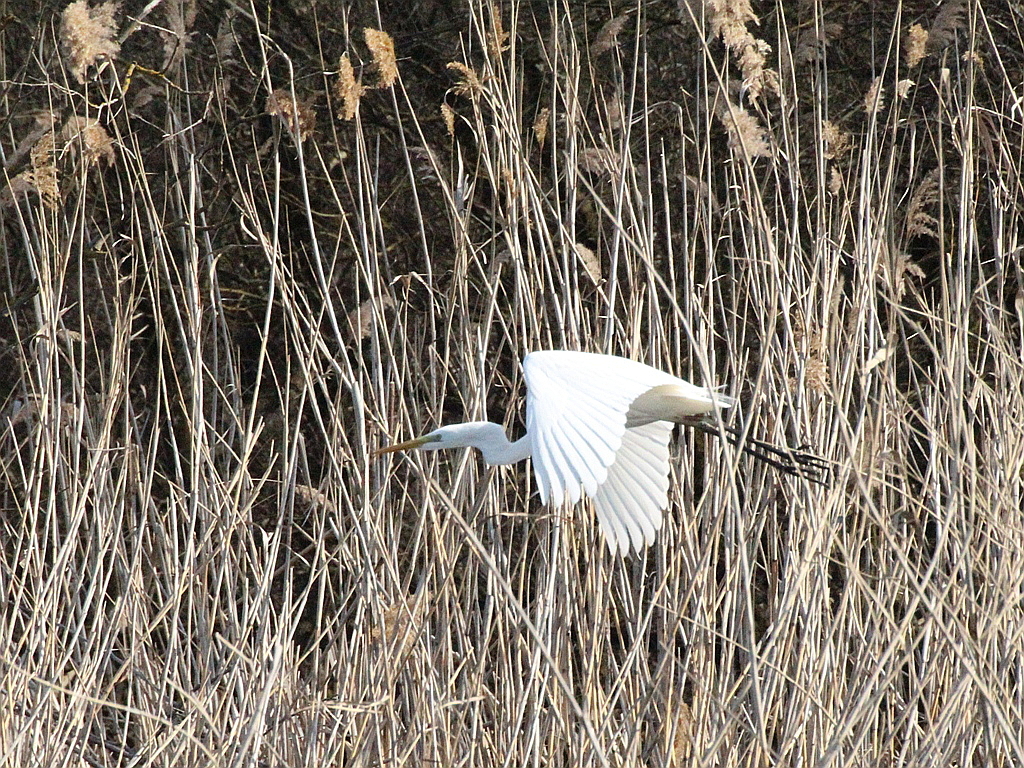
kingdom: Animalia
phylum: Chordata
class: Aves
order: Pelecaniformes
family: Ardeidae
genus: Ardea
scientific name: Ardea alba
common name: Great egret
